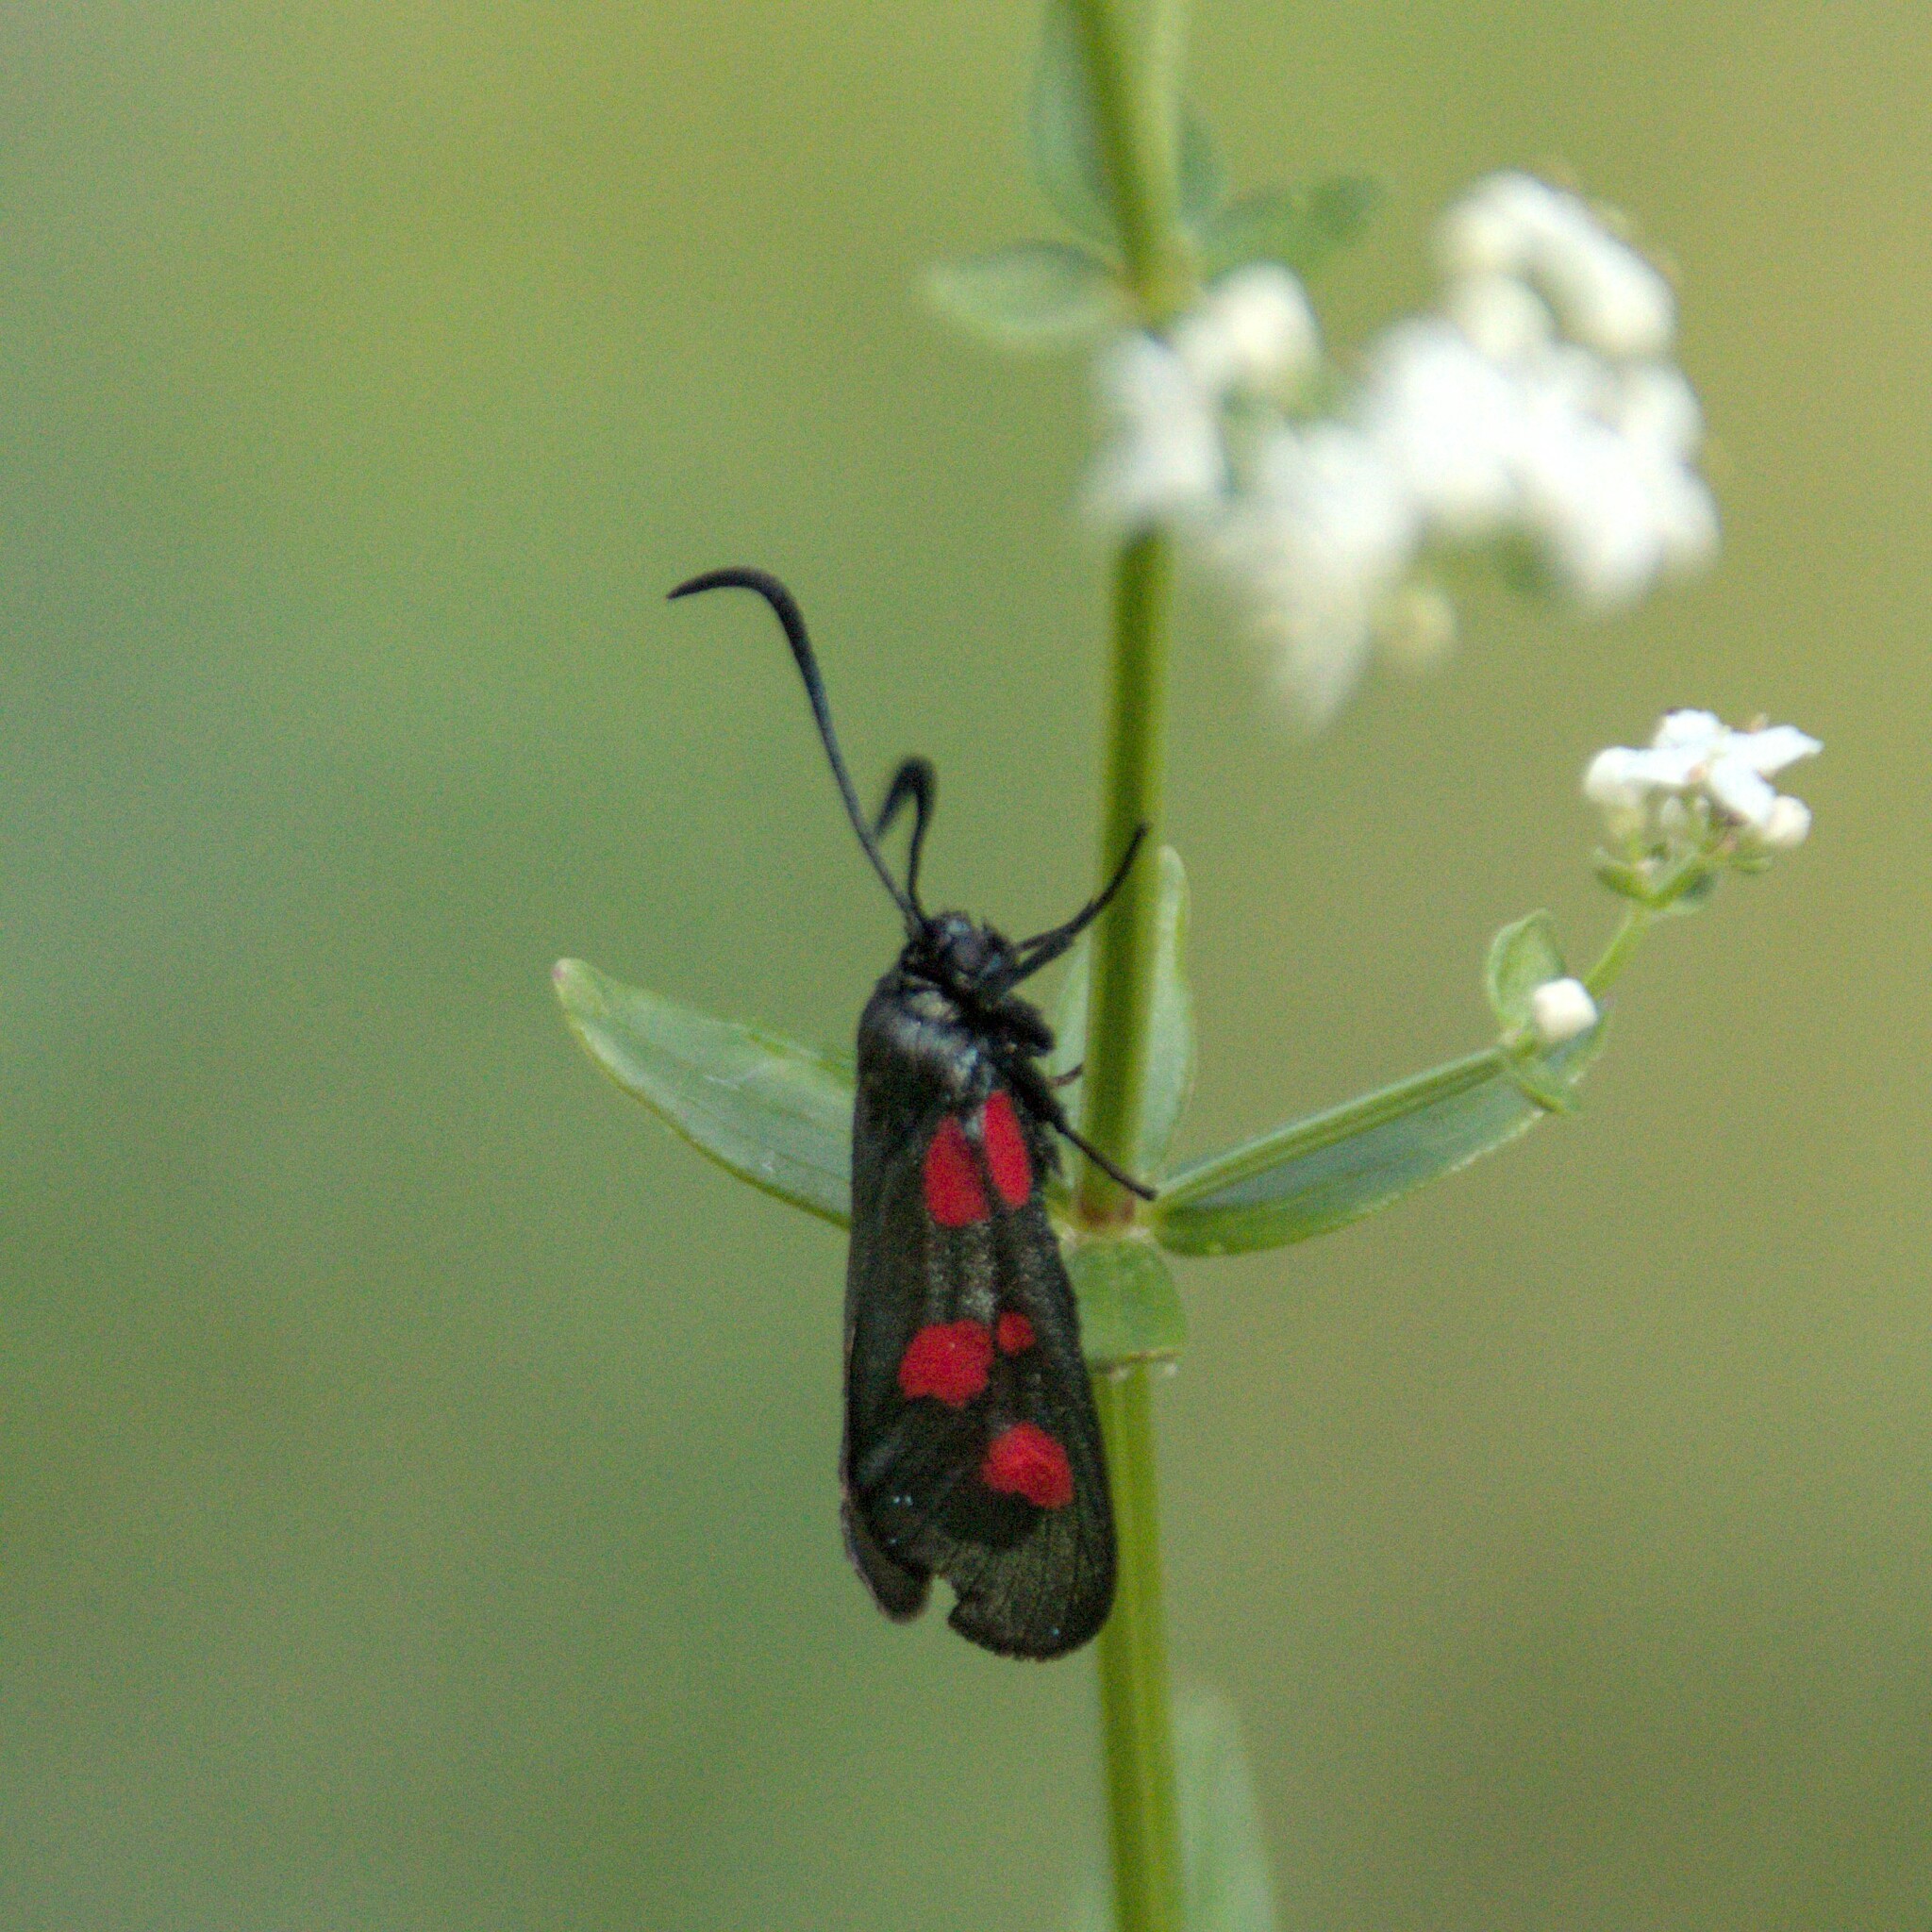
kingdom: Animalia
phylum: Arthropoda
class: Insecta
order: Lepidoptera
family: Zygaenidae
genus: Zygaena
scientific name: Zygaena viciae
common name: New forest burnet
